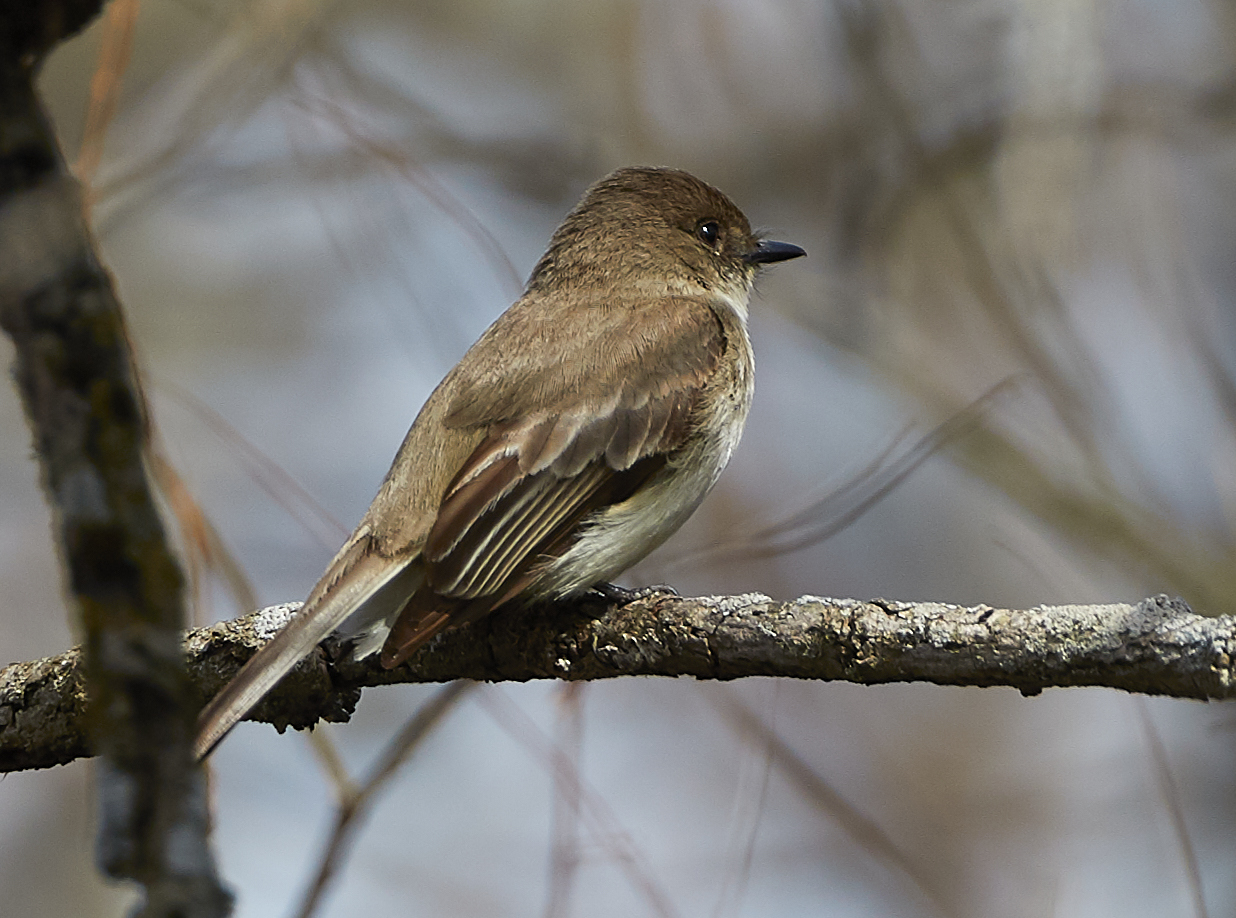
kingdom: Animalia
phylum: Chordata
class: Aves
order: Passeriformes
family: Tyrannidae
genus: Sayornis
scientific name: Sayornis phoebe
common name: Eastern phoebe
